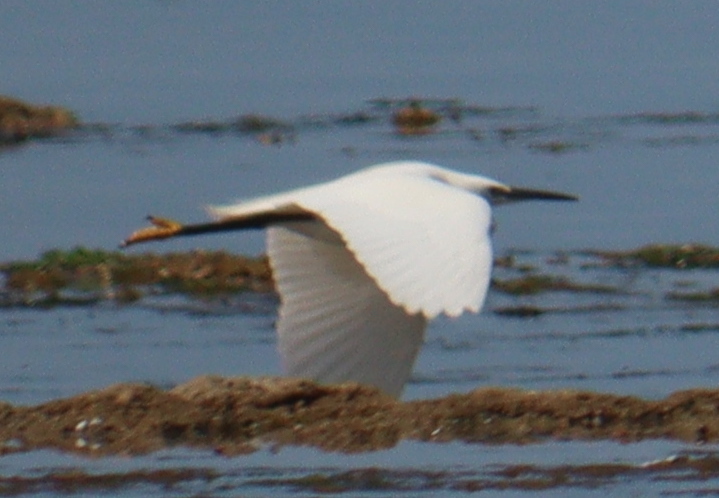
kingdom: Animalia
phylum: Chordata
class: Aves
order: Pelecaniformes
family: Ardeidae
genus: Egretta
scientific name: Egretta garzetta
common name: Little egret
